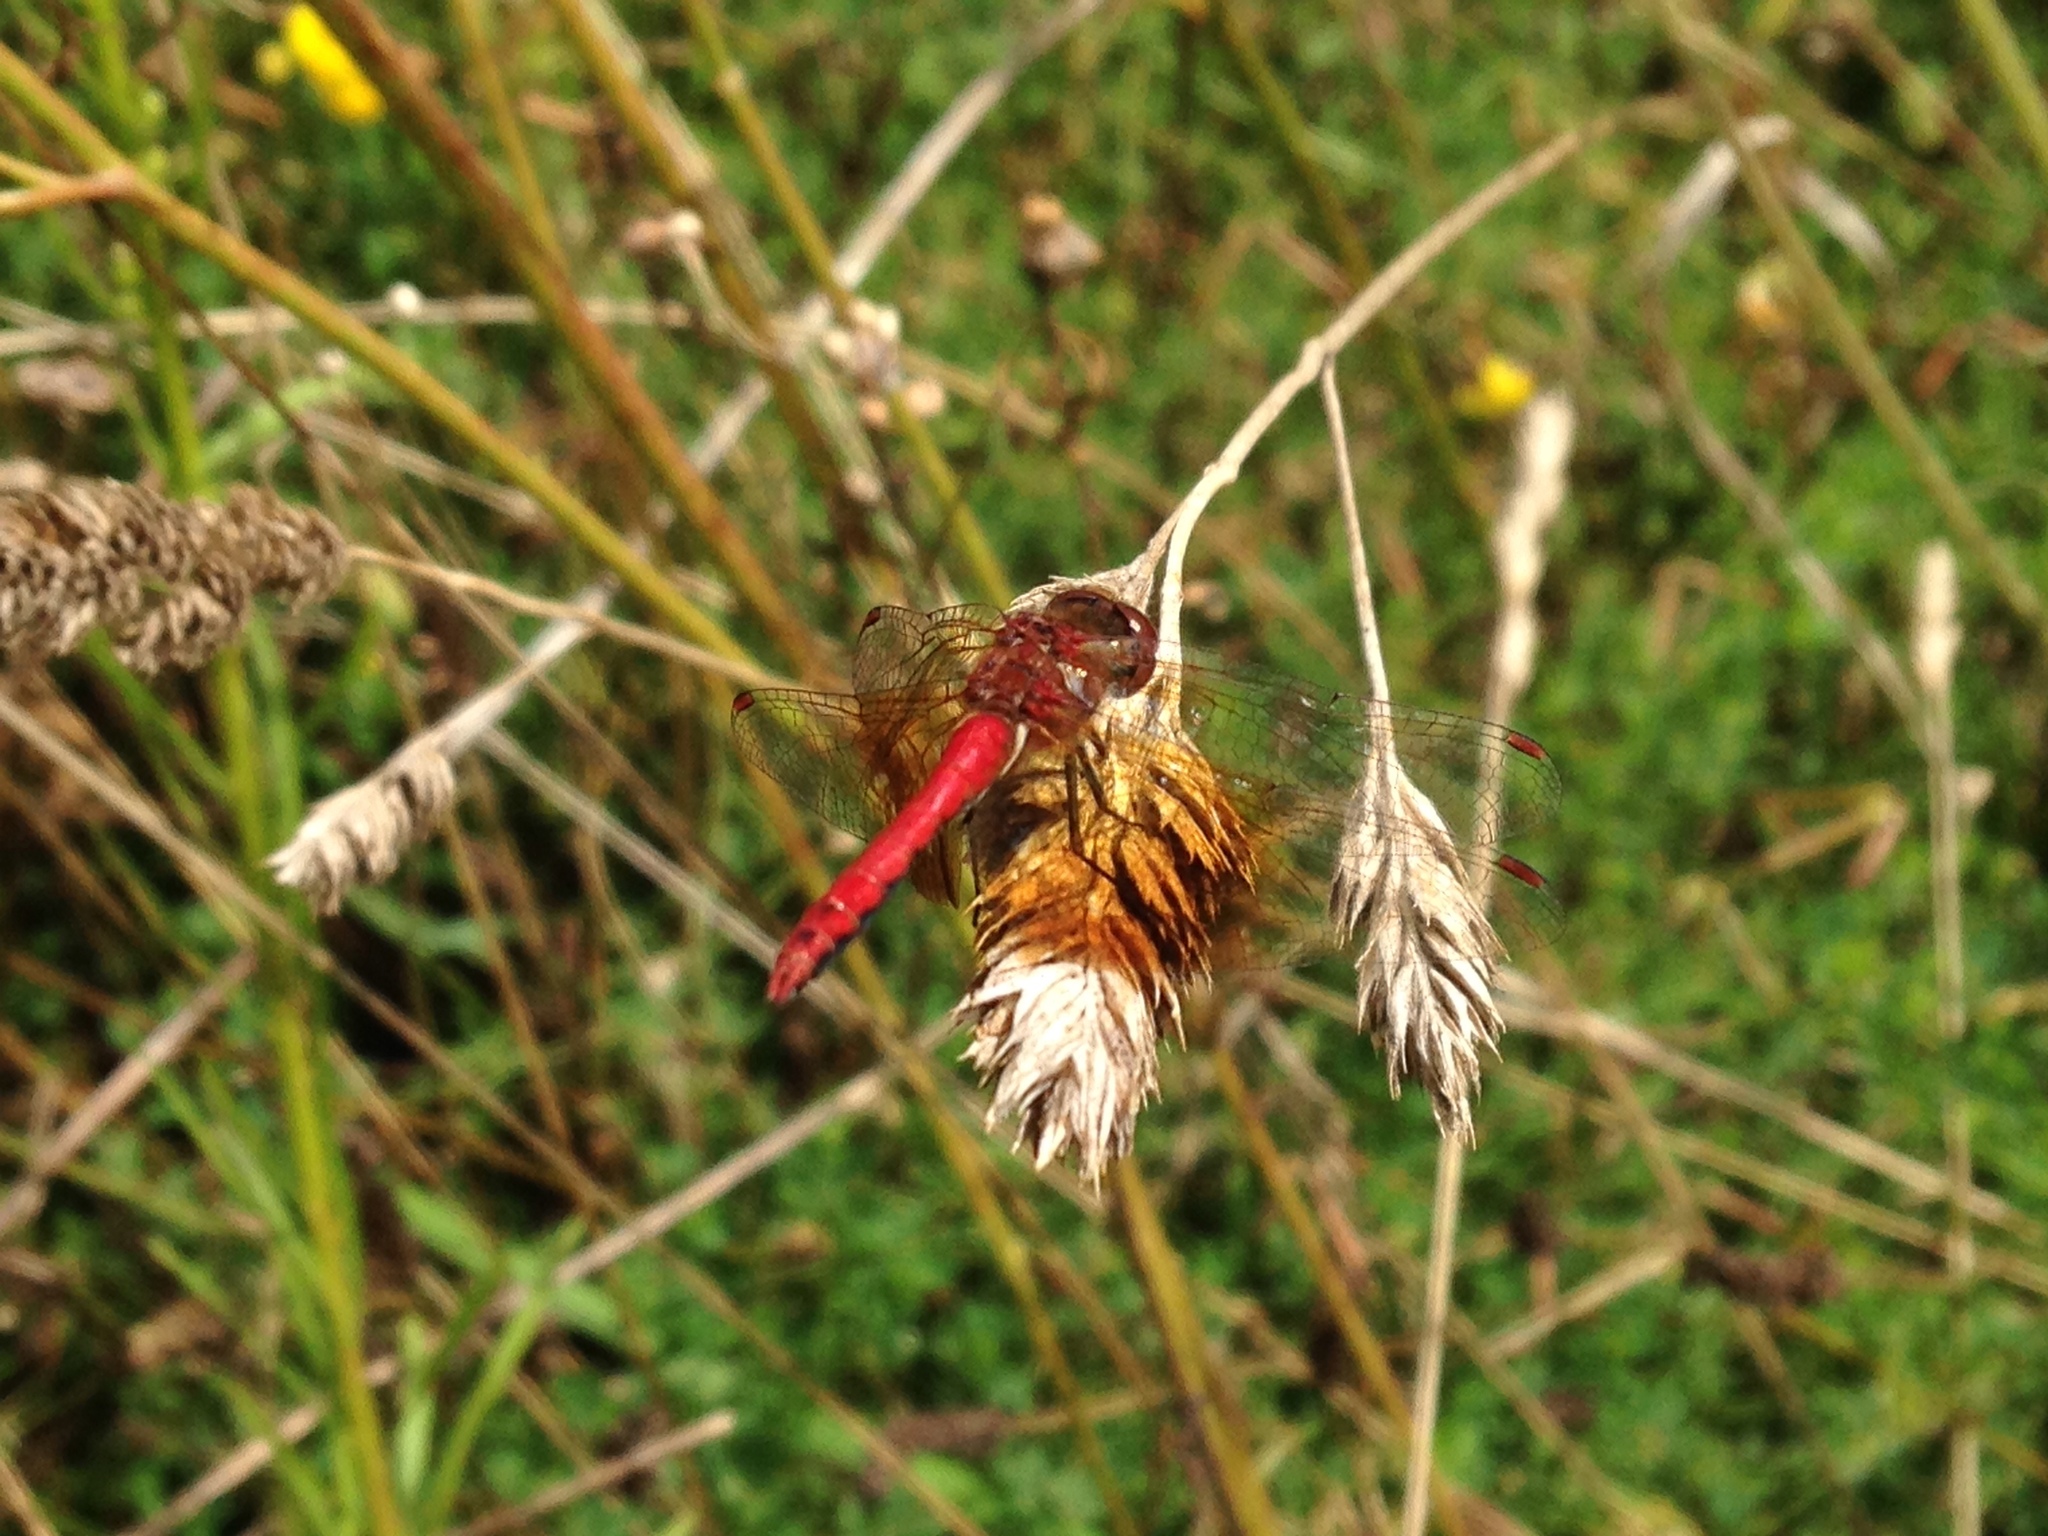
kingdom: Animalia
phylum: Arthropoda
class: Insecta
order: Odonata
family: Libellulidae
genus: Sympetrum
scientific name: Sympetrum semicinctum
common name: Band-winged meadowhawk
